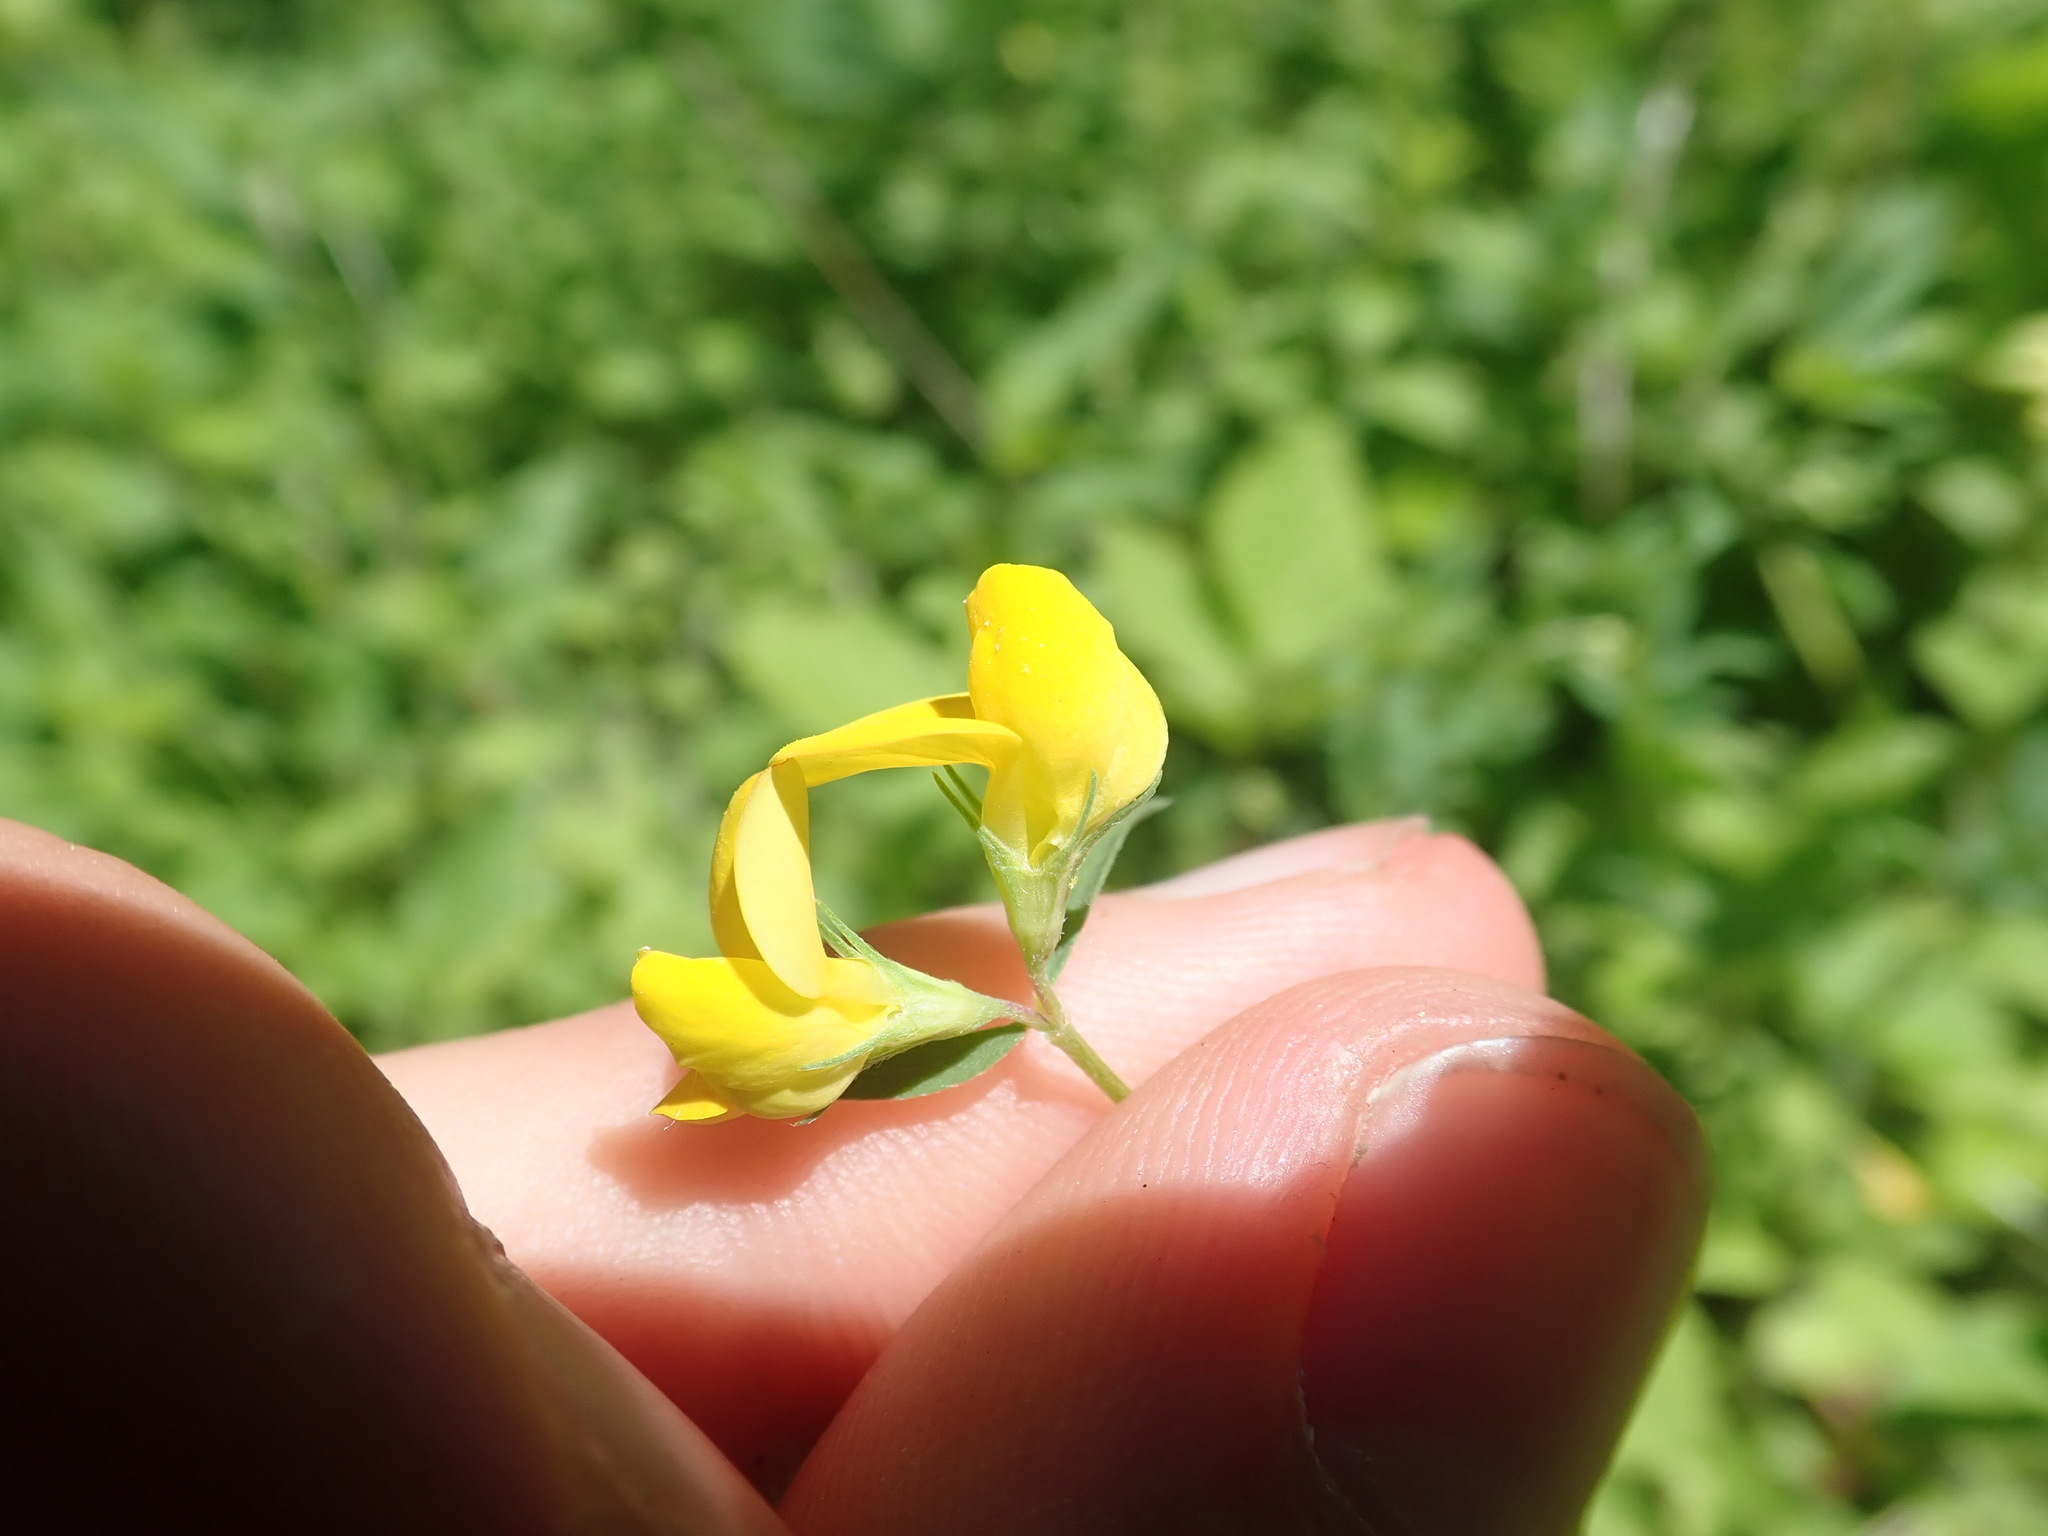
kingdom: Plantae
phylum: Tracheophyta
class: Magnoliopsida
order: Fabales
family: Fabaceae
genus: Lotus
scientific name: Lotus tenuis
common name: Narrow-leaved bird's-foot-trefoil
